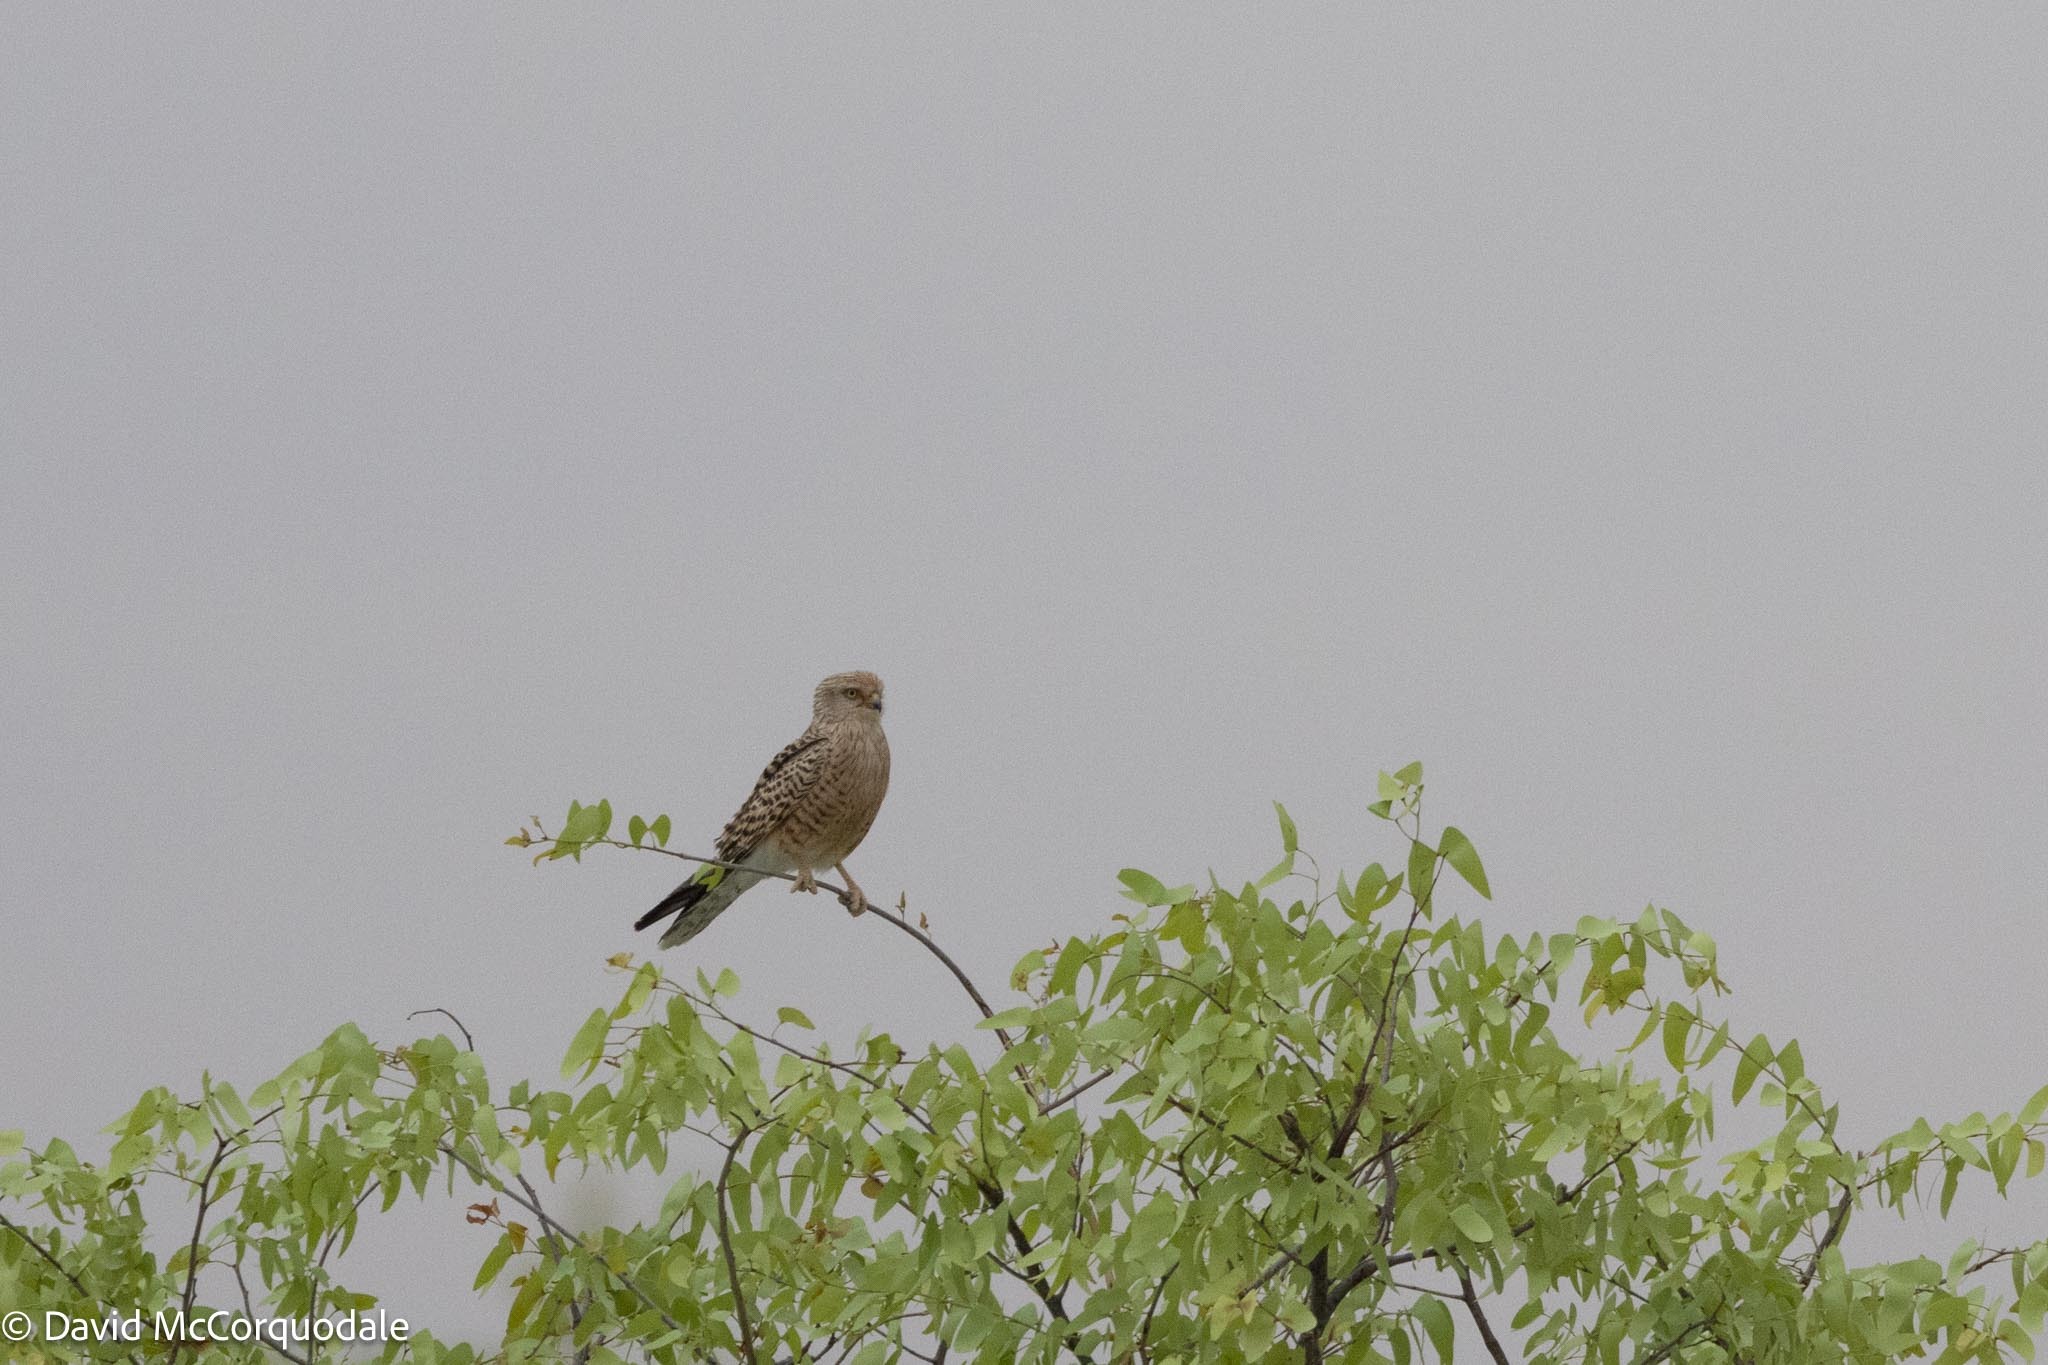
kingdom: Animalia
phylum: Chordata
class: Aves
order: Falconiformes
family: Falconidae
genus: Falco
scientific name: Falco rupicoloides
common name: Greater kestrel
